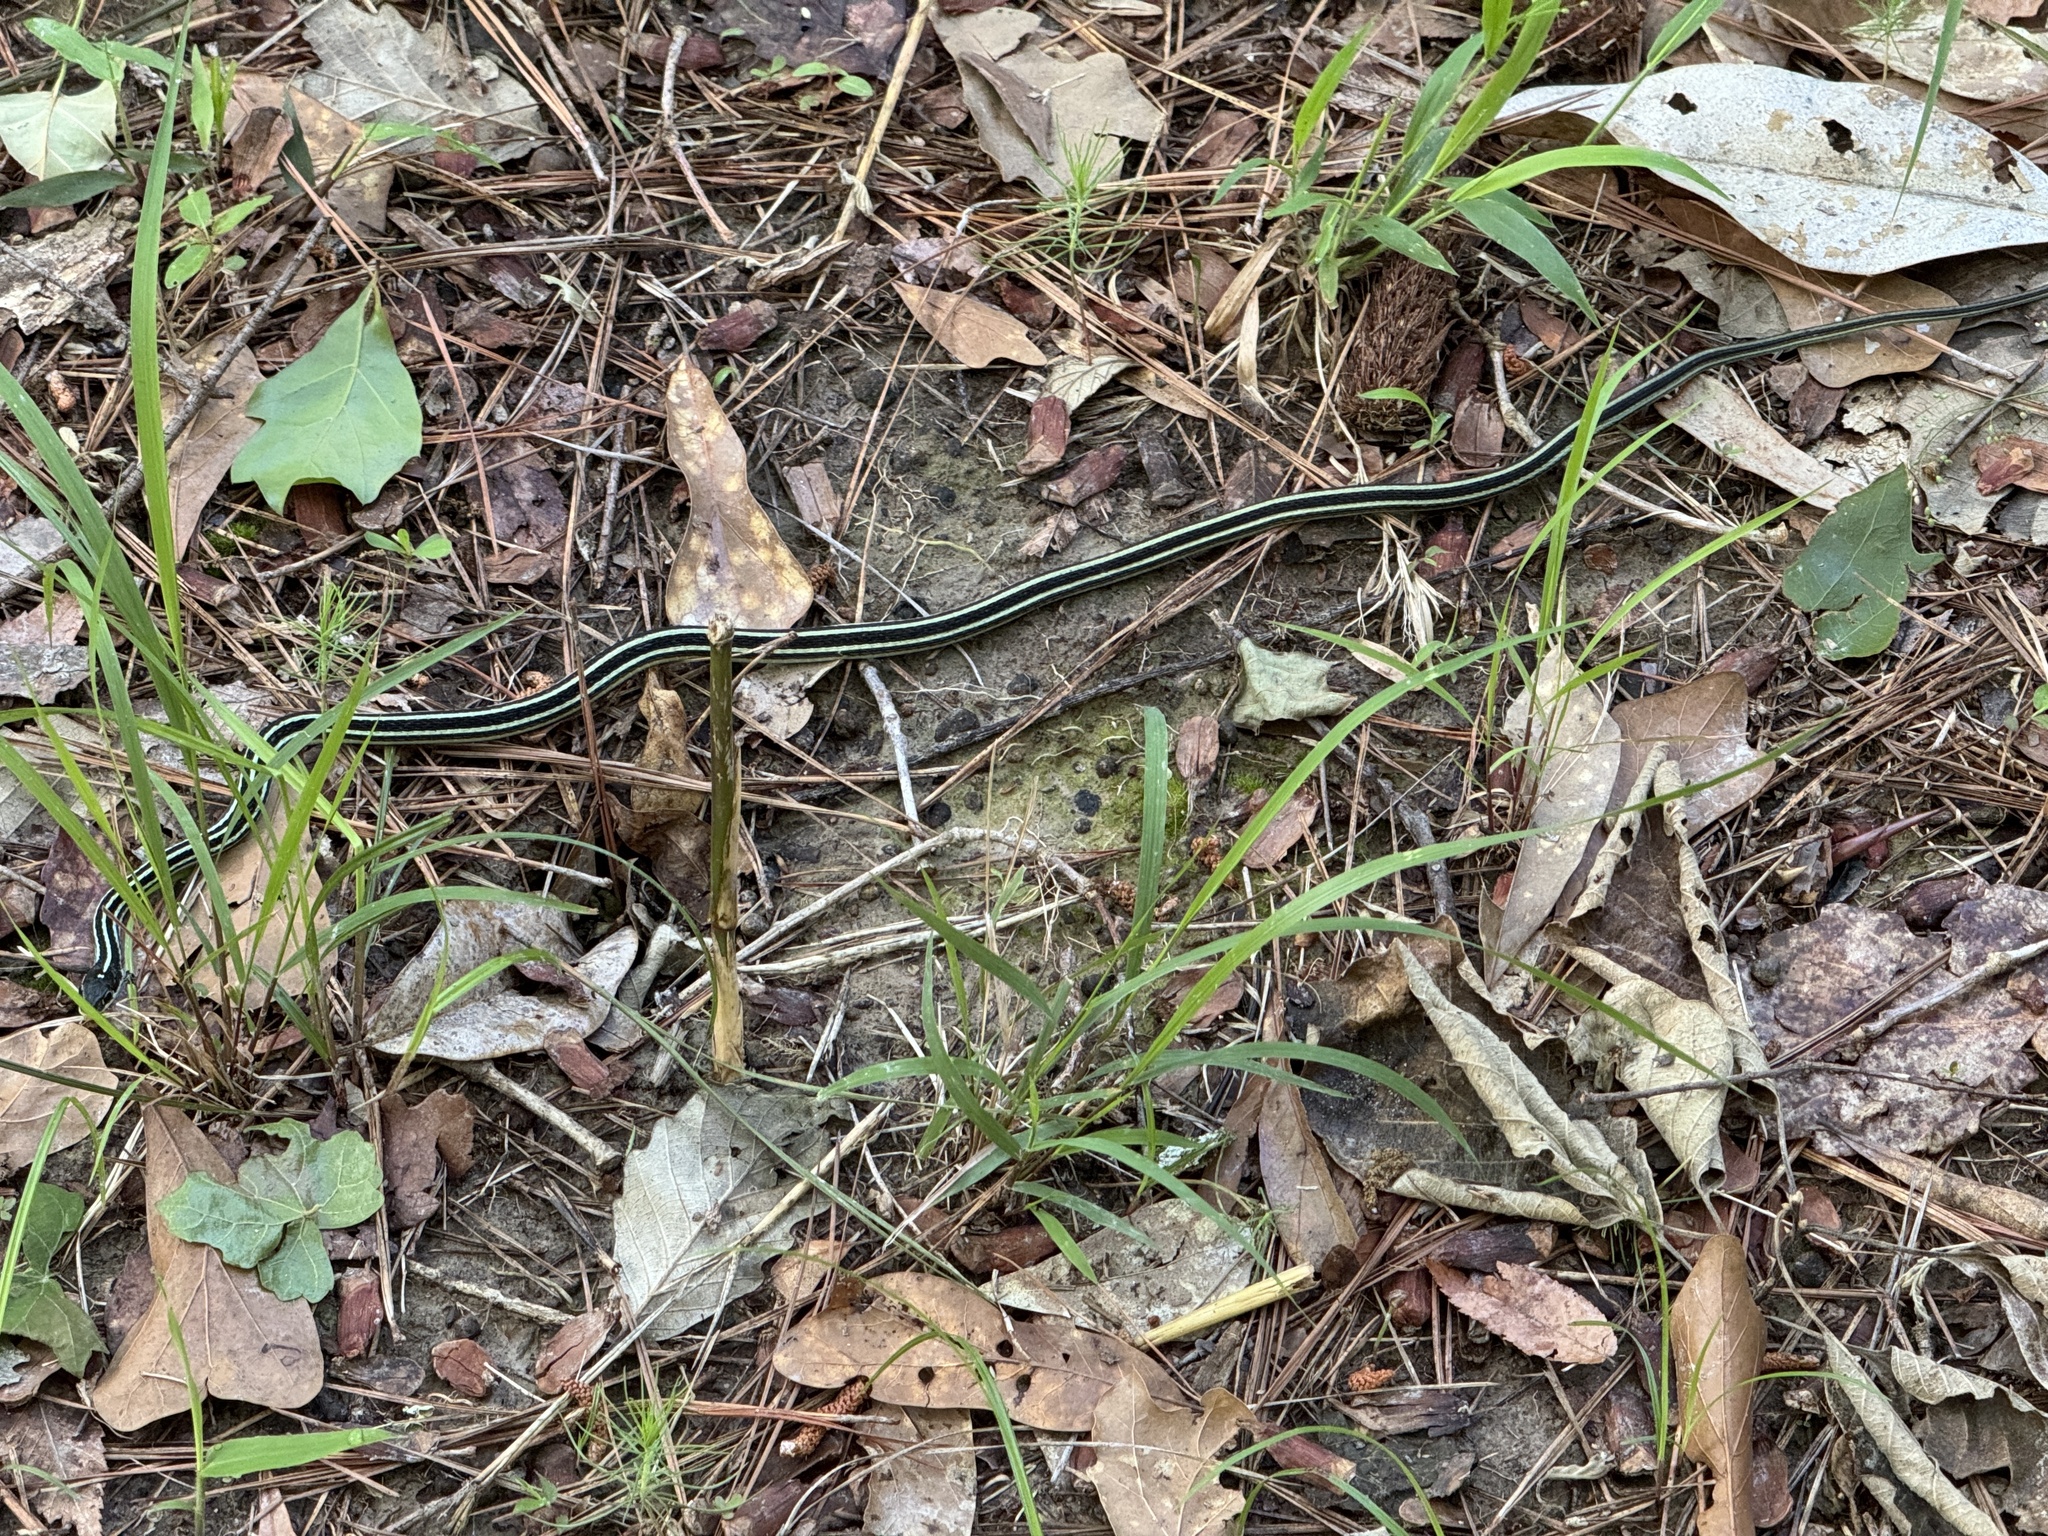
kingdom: Animalia
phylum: Chordata
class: Squamata
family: Colubridae
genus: Thamnophis
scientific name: Thamnophis proximus
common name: Western ribbon snake
